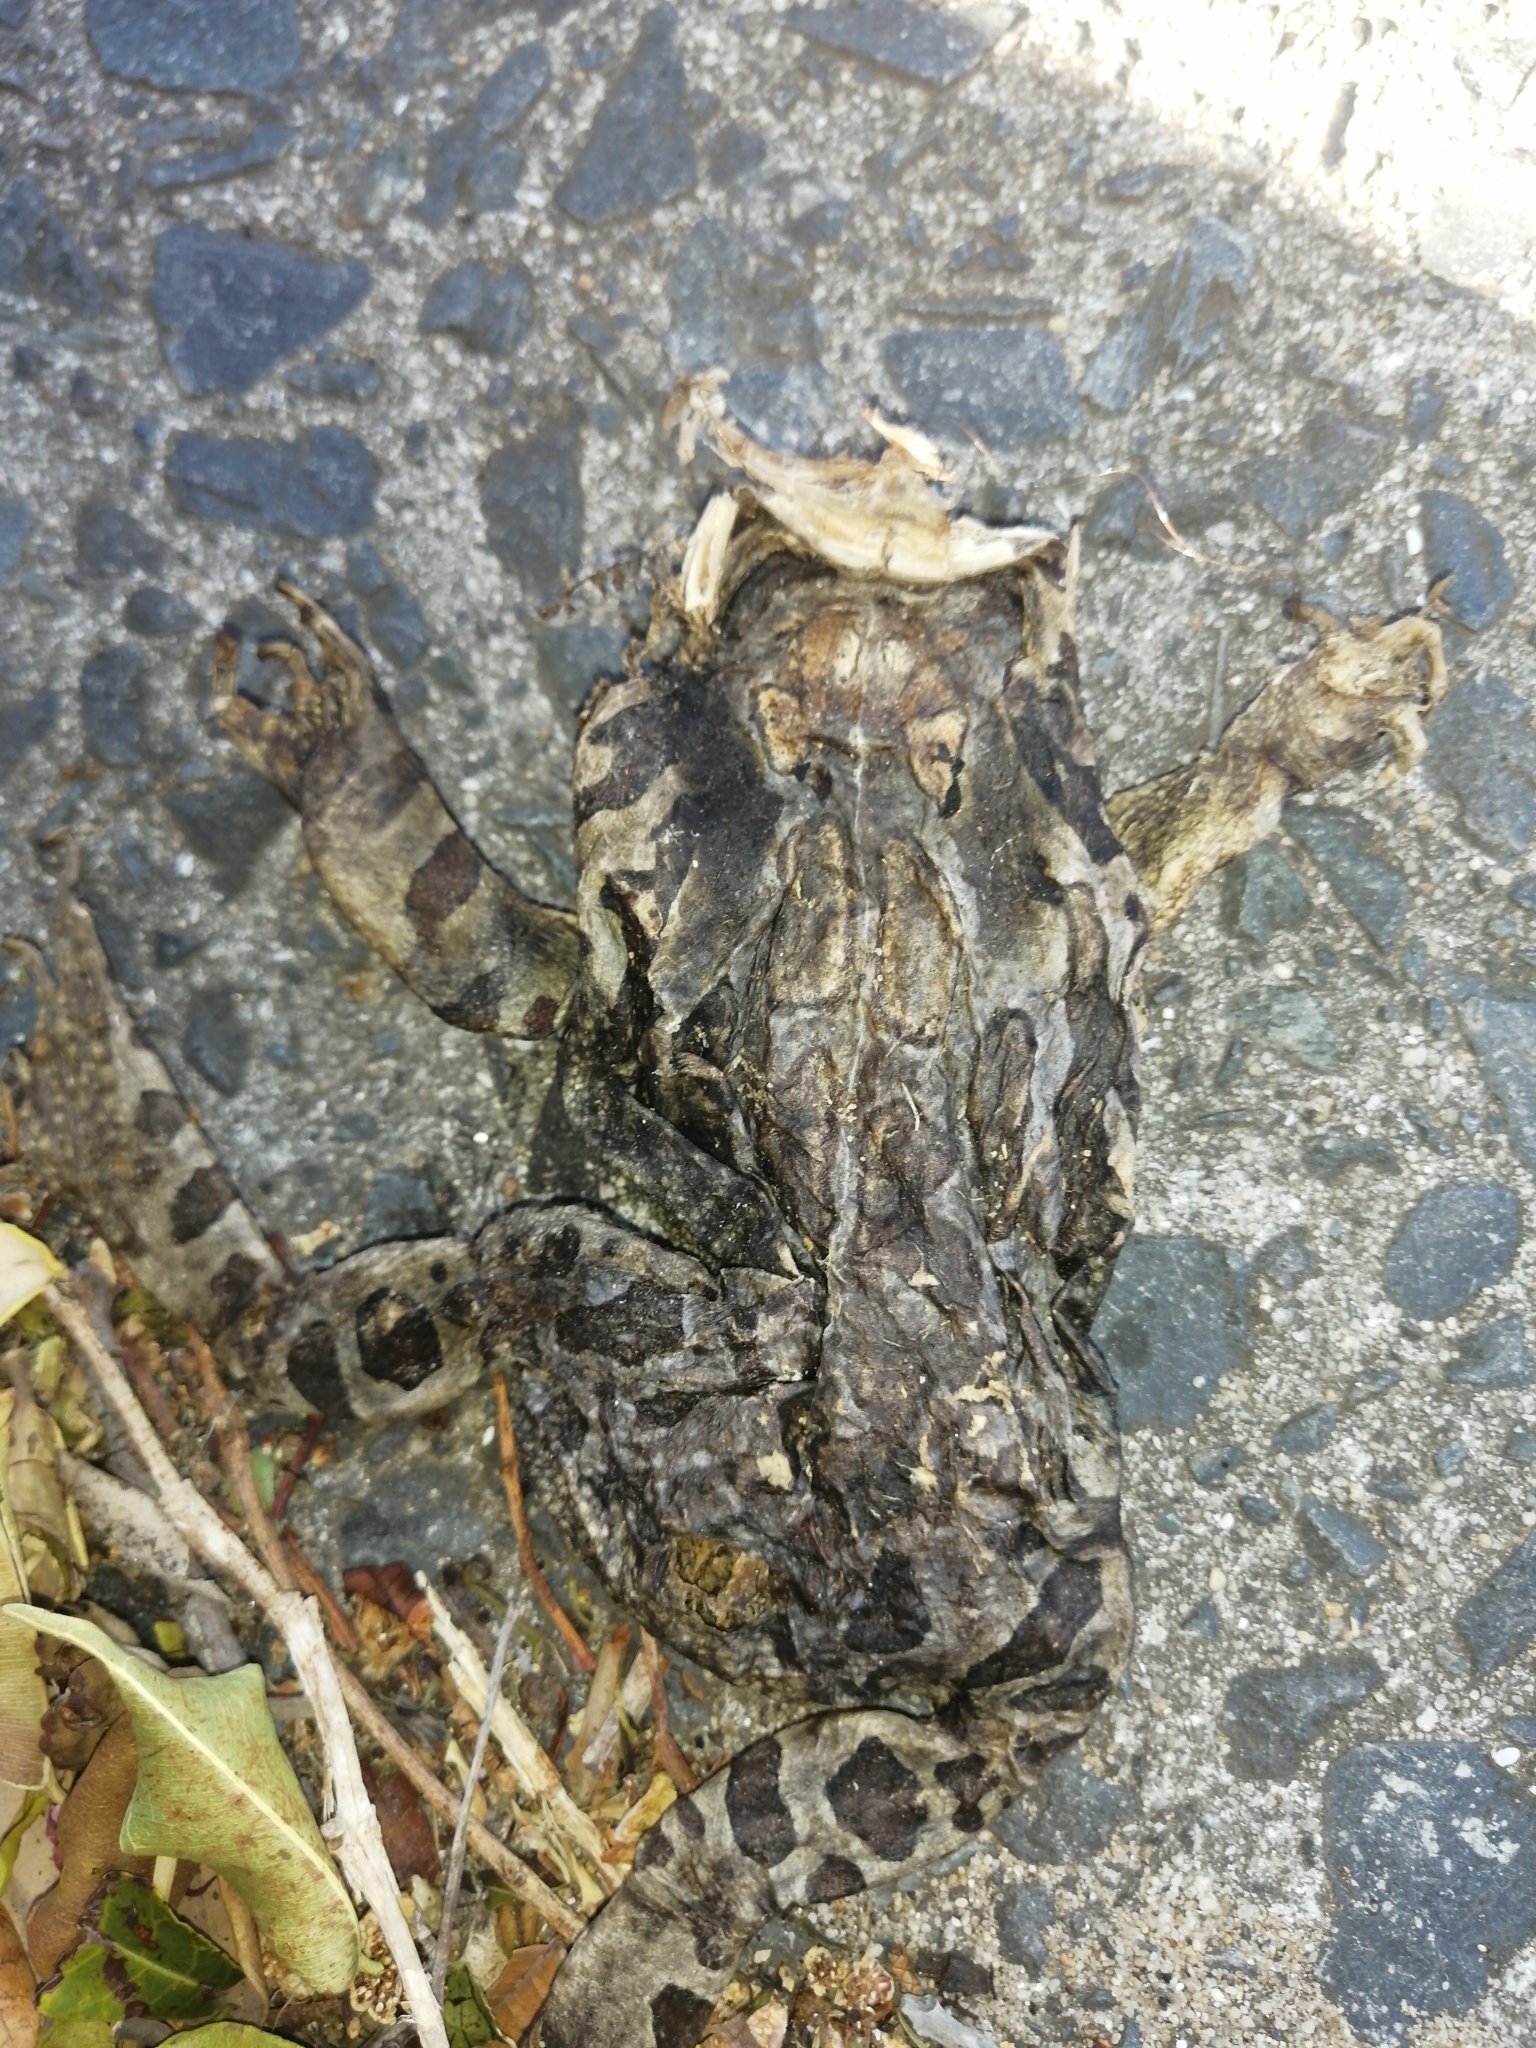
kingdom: Animalia
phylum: Chordata
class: Amphibia
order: Anura
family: Bufonidae
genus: Sclerophrys
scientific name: Sclerophrys pantherina
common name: Panther toad
